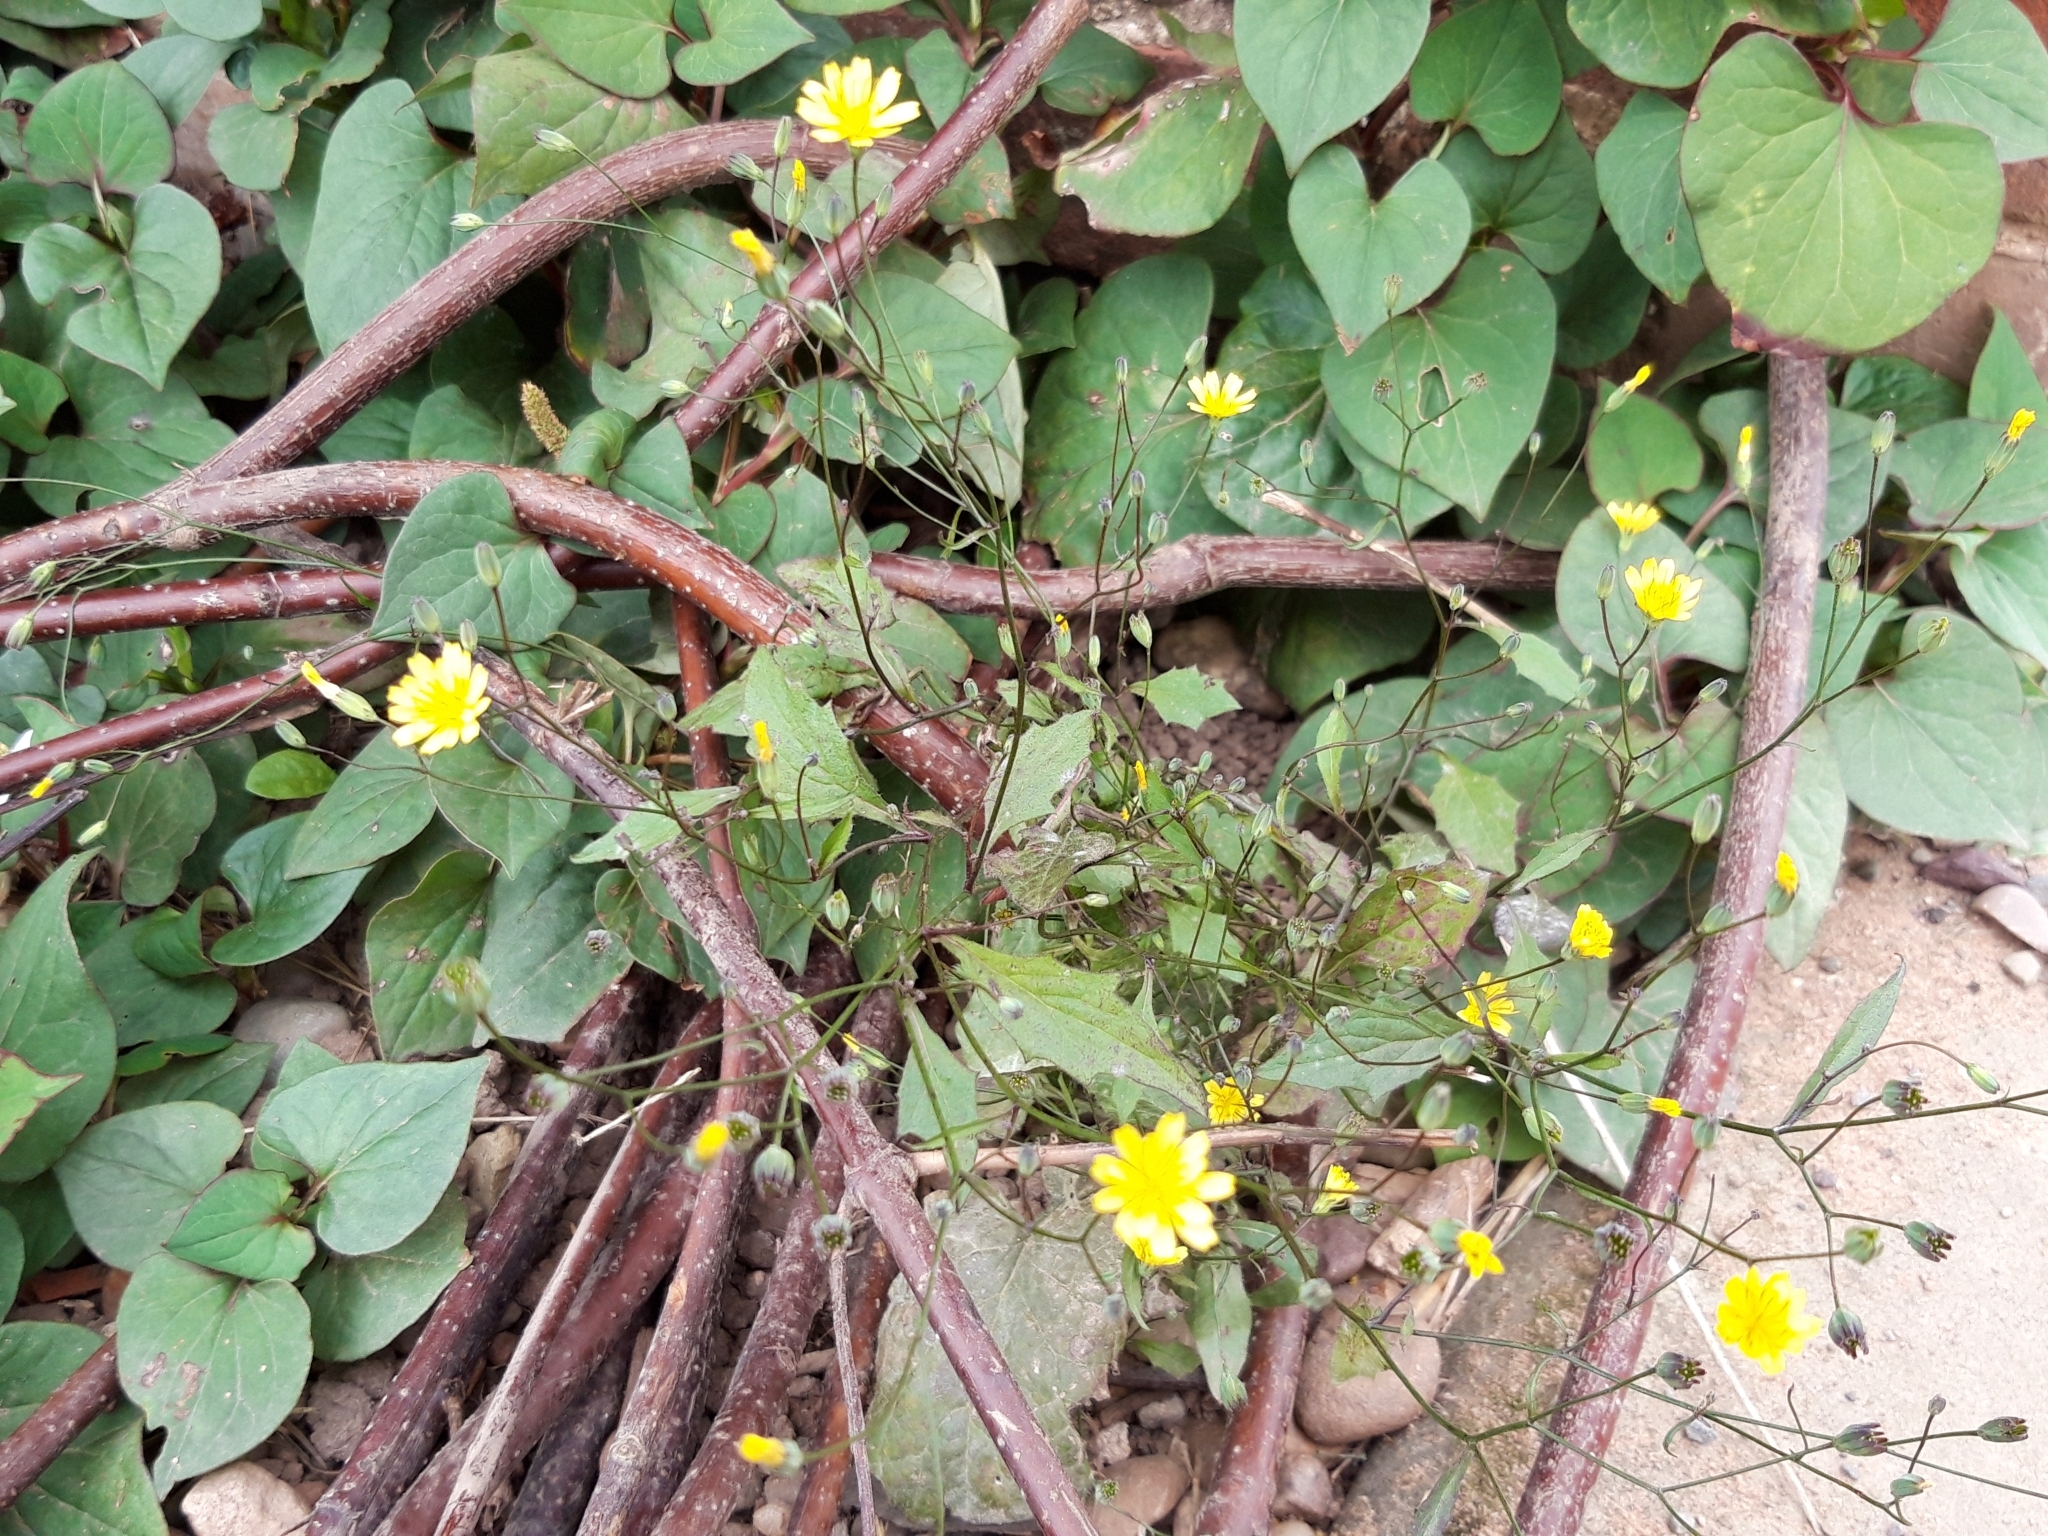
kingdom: Plantae
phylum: Tracheophyta
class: Magnoliopsida
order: Asterales
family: Asteraceae
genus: Lapsana
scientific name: Lapsana communis
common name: Nipplewort
